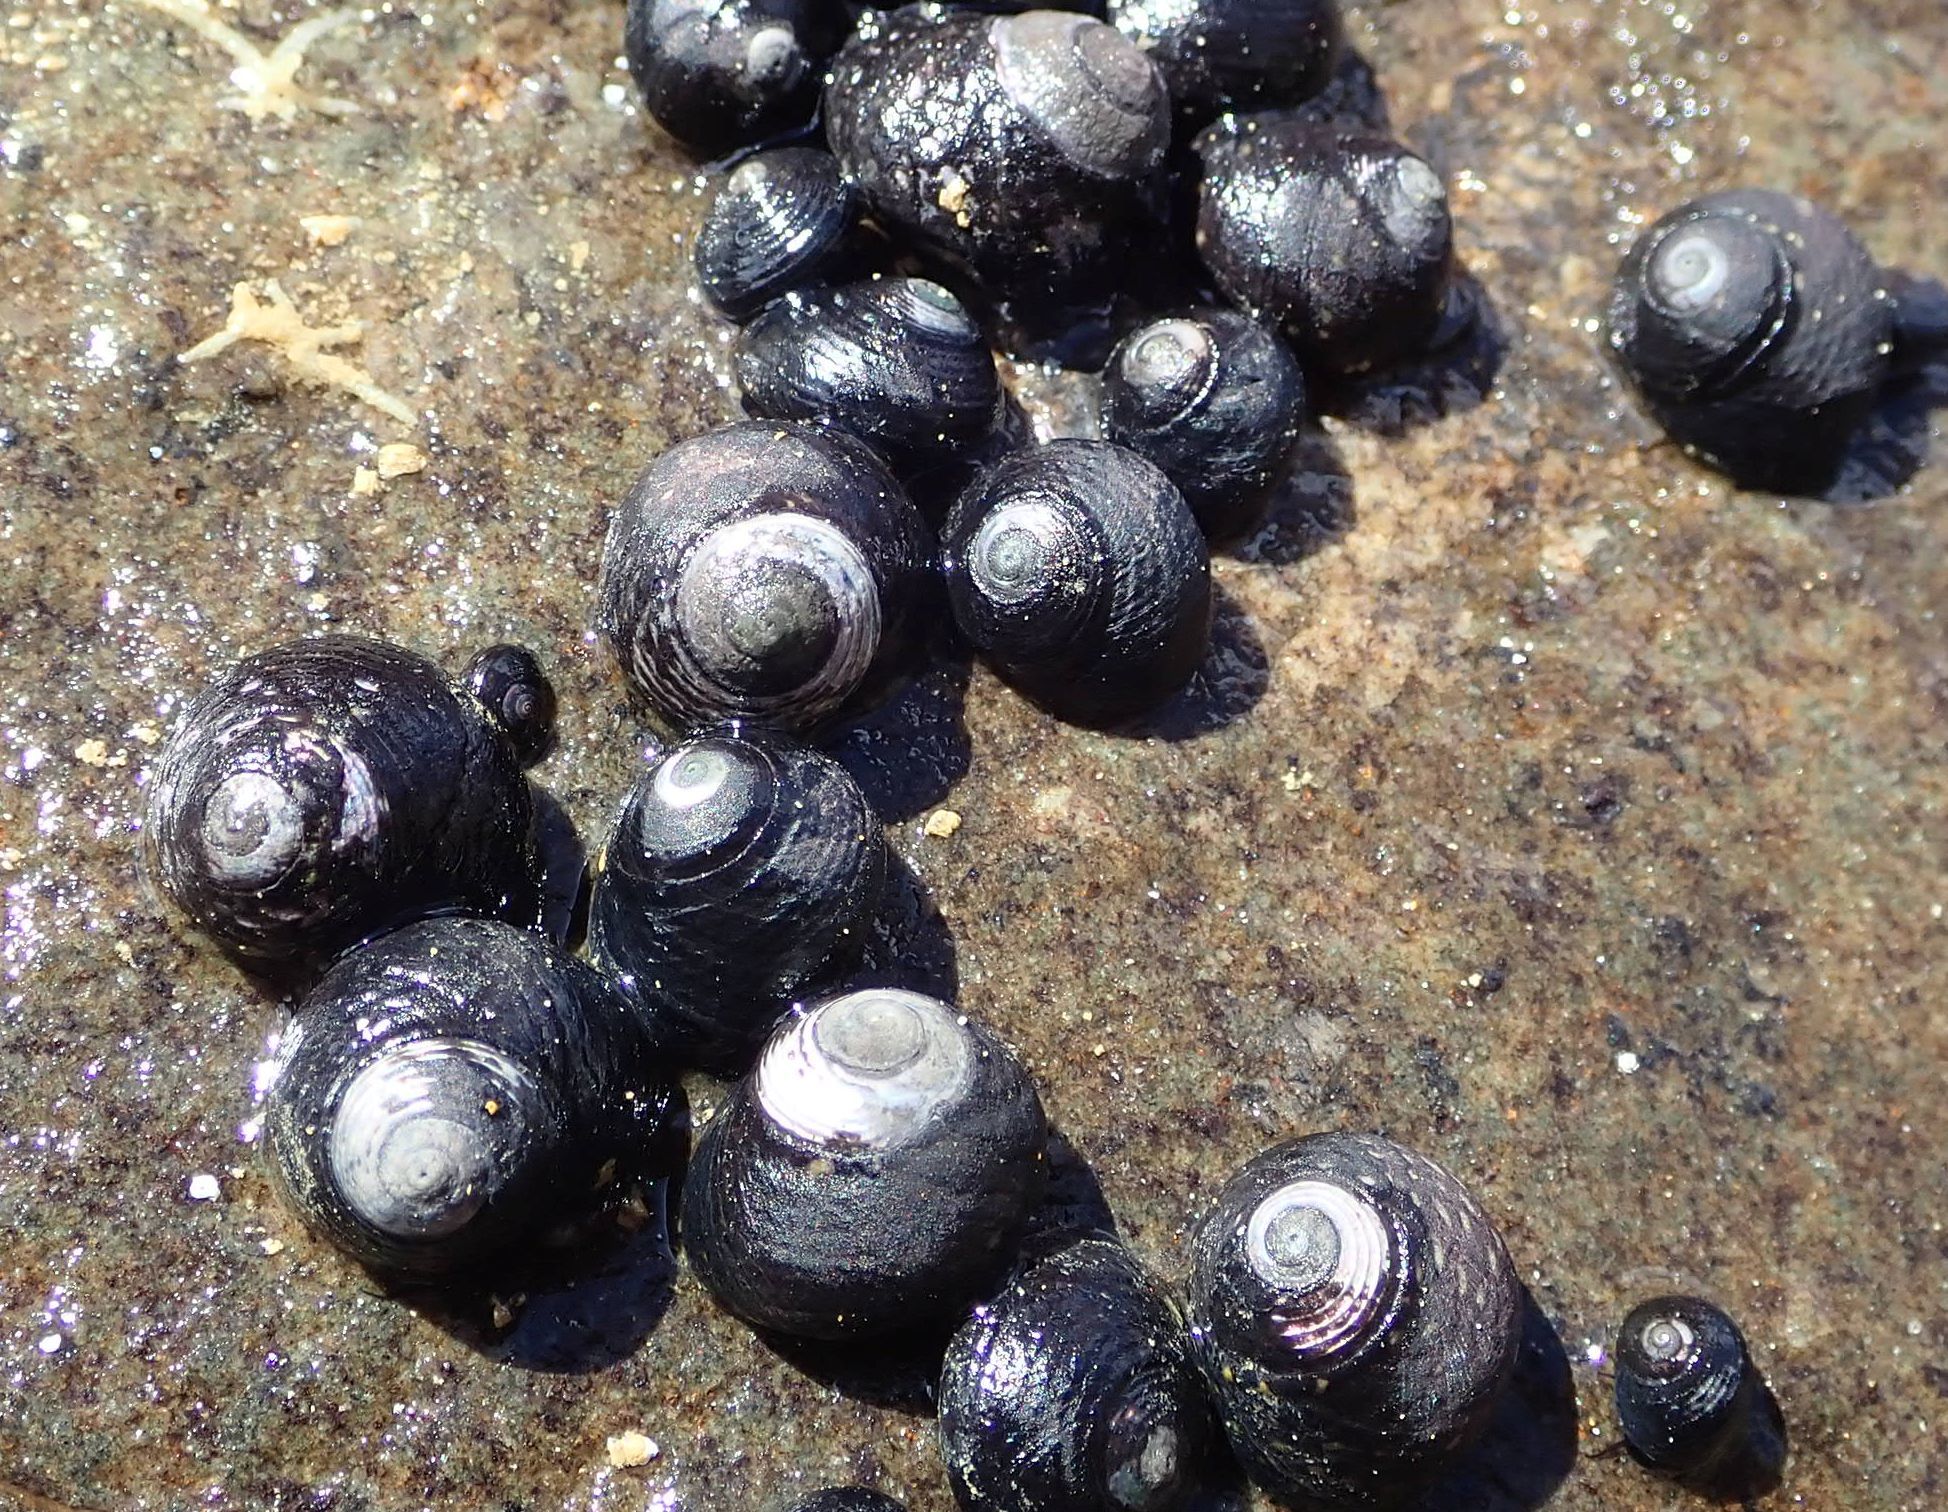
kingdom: Animalia
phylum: Mollusca
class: Gastropoda
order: Trochida
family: Trochidae
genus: Diloma
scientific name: Diloma zelandicum
